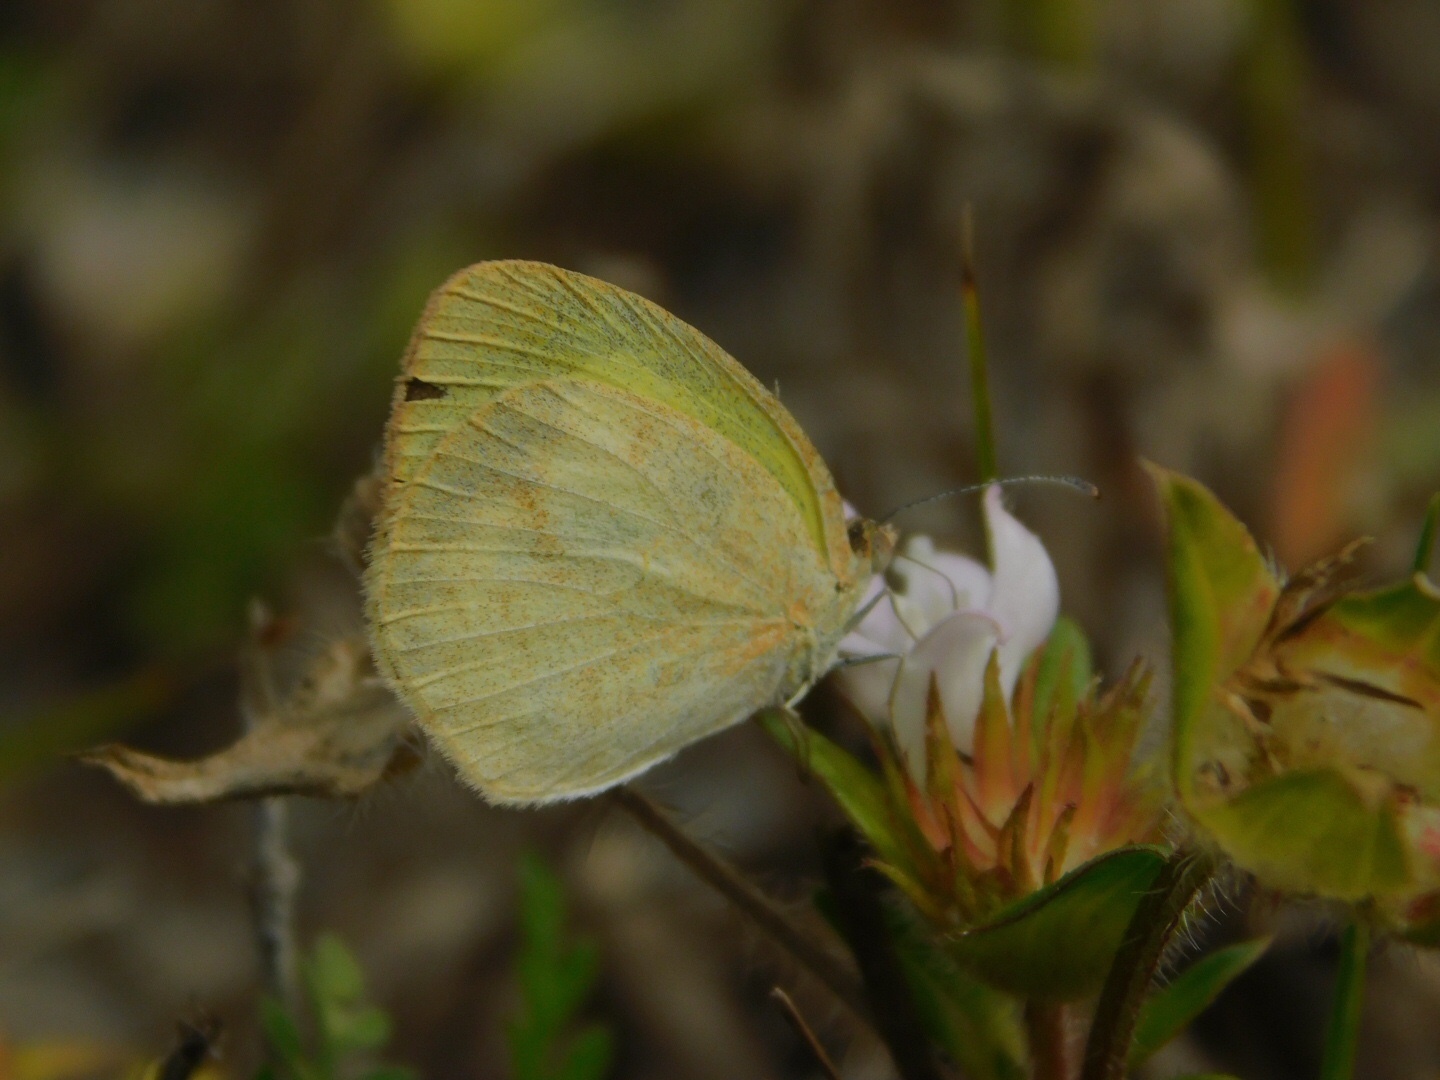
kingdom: Animalia
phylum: Arthropoda
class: Insecta
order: Lepidoptera
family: Pieridae
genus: Eurema
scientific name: Eurema daira
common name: Barred sulphur
